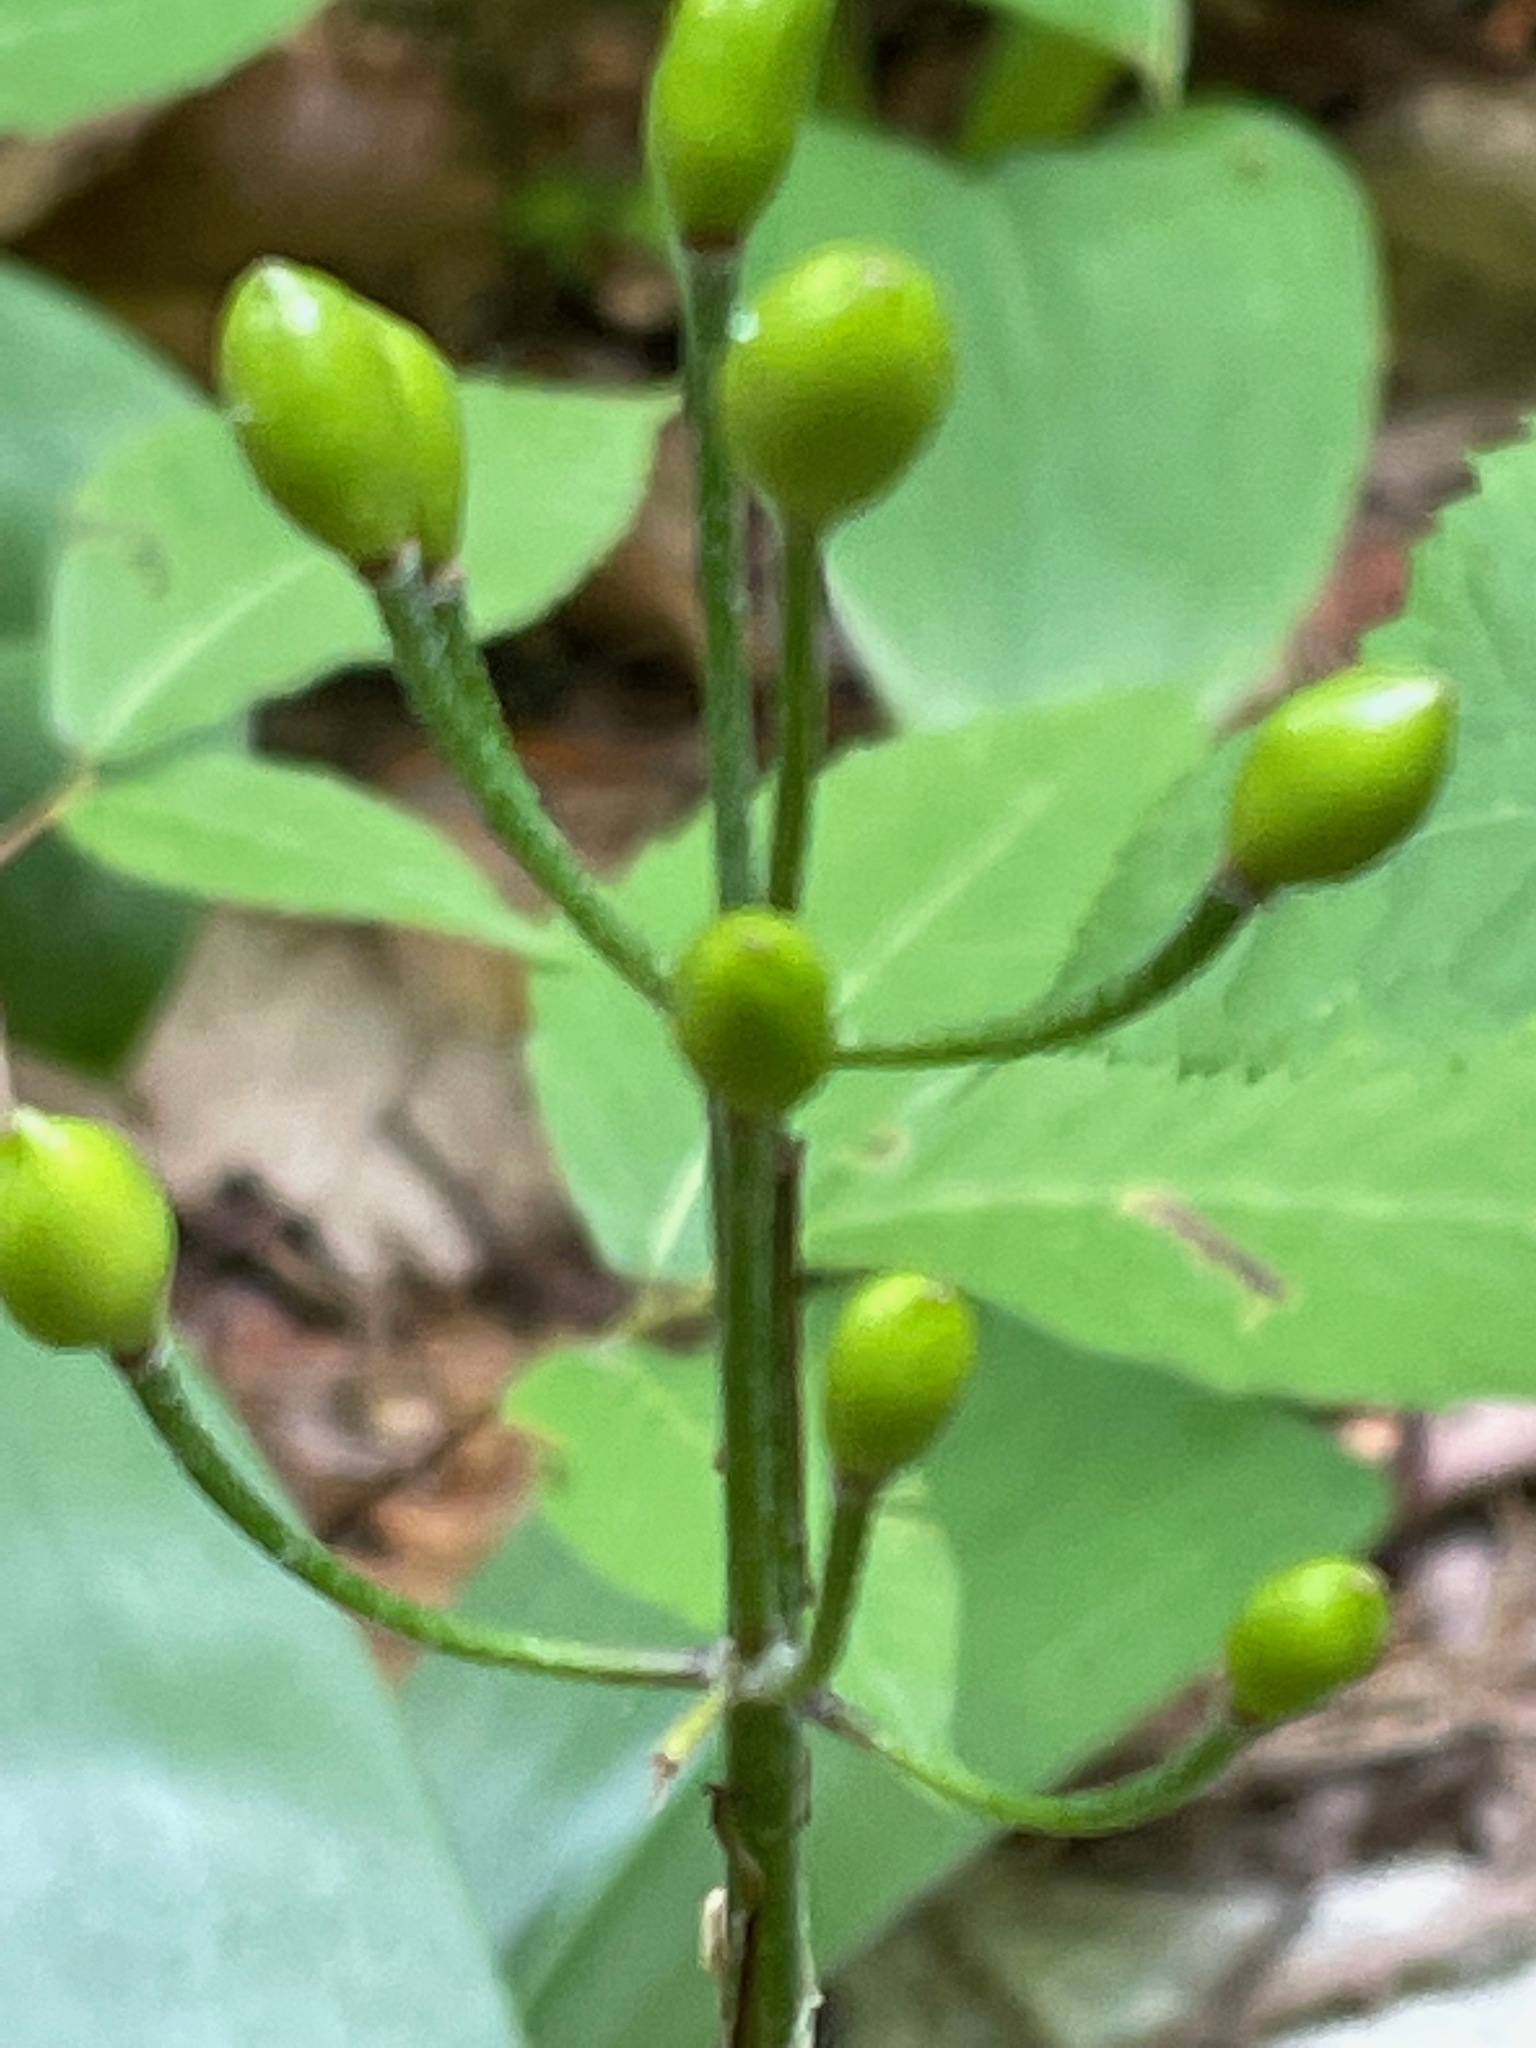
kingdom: Plantae
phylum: Tracheophyta
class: Liliopsida
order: Liliales
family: Liliaceae
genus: Clintonia
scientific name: Clintonia borealis
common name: Yellow clintonia
